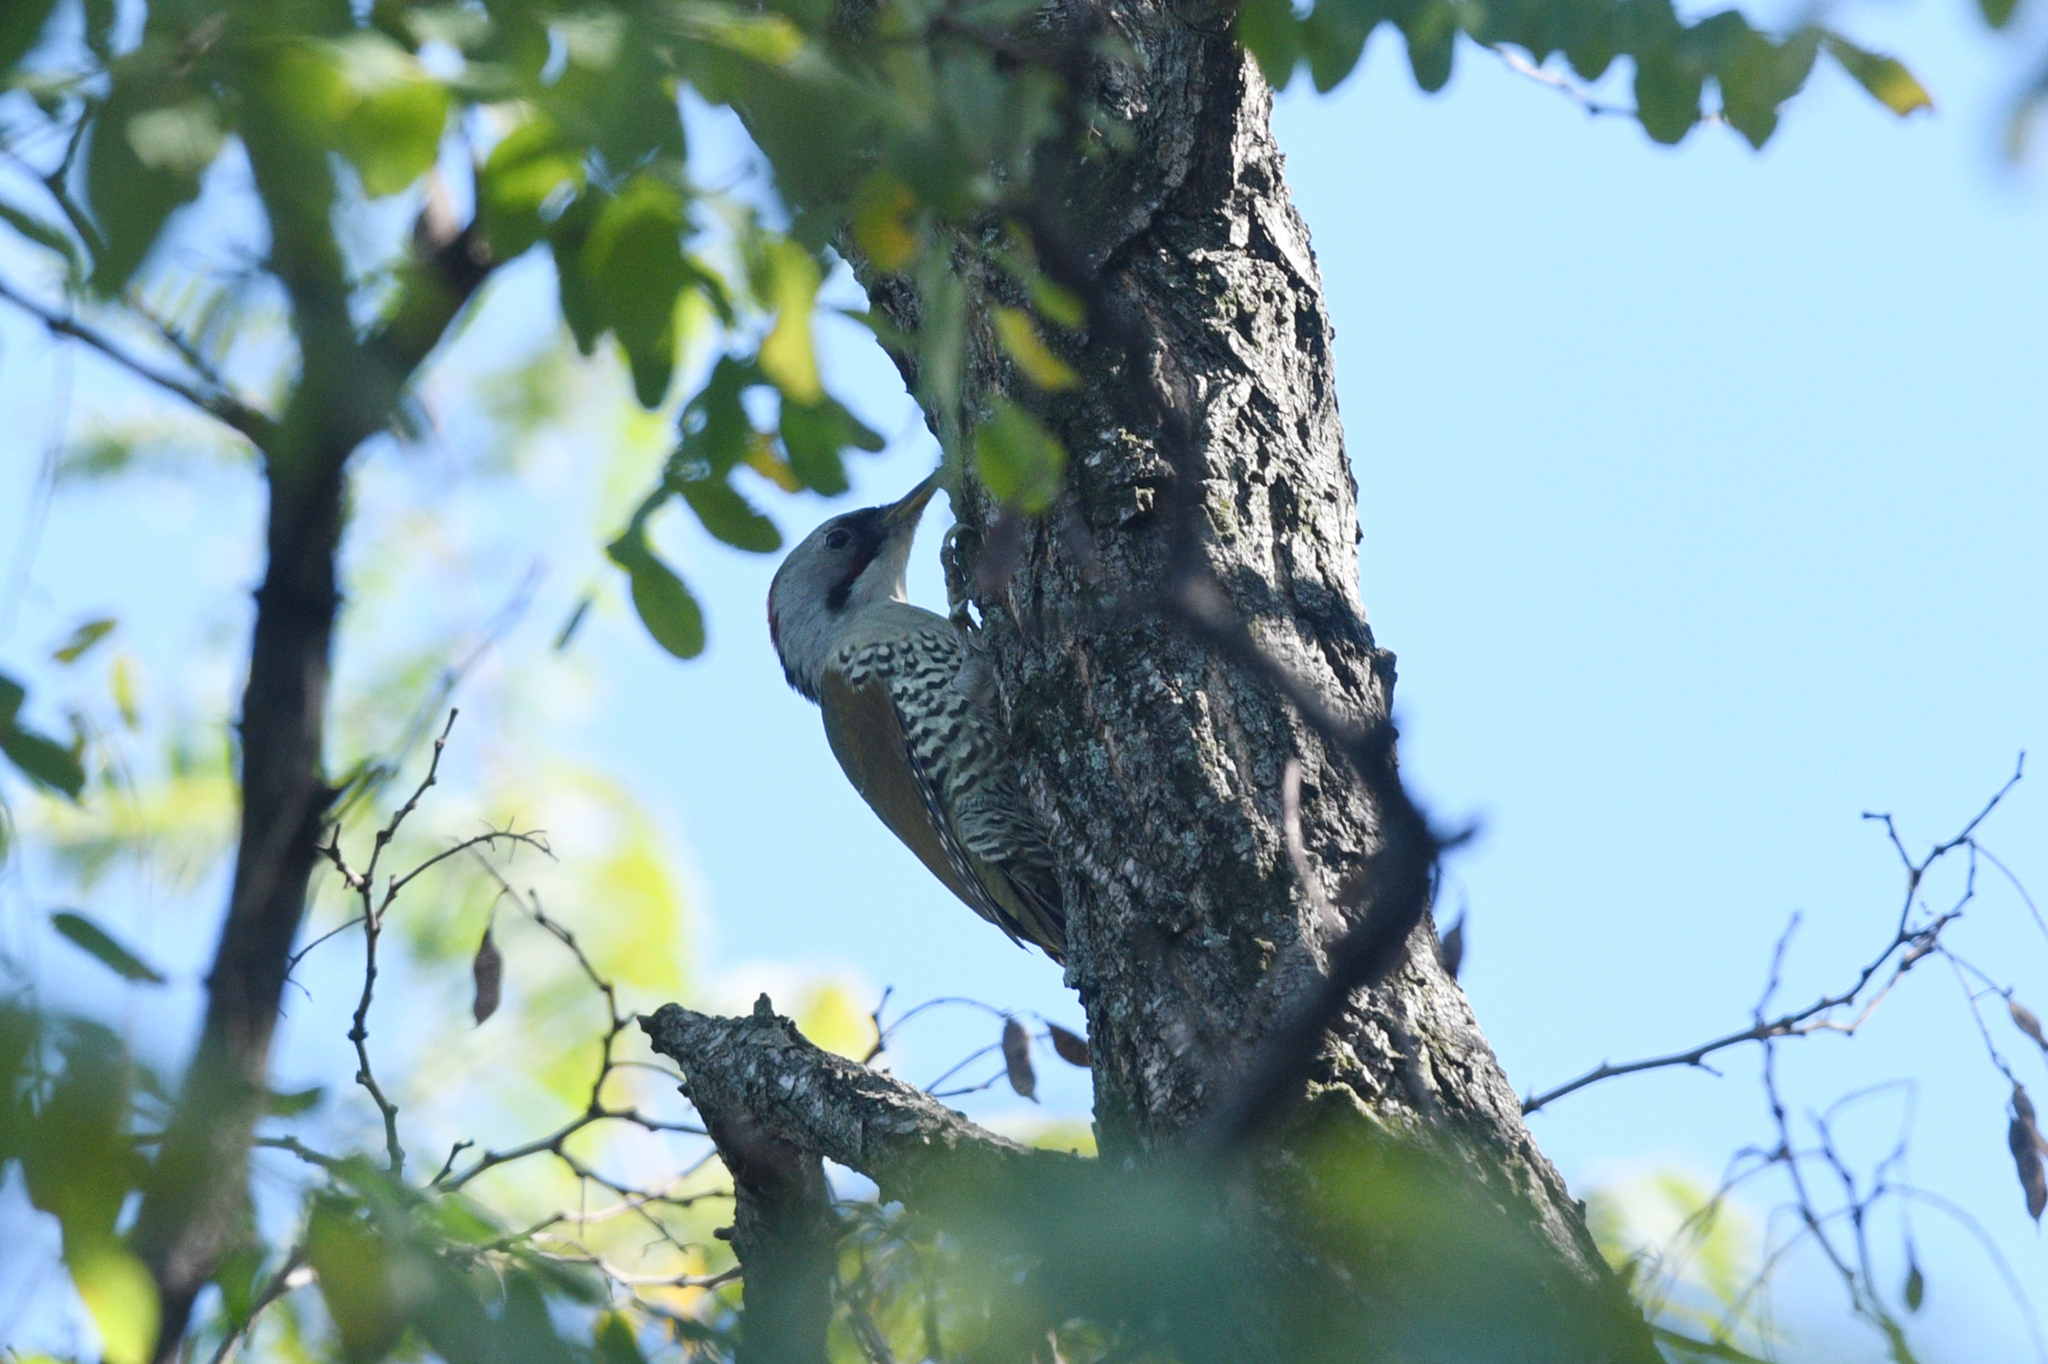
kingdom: Animalia
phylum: Chordata
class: Aves
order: Piciformes
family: Picidae
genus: Picus
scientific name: Picus awokera
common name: Japanese green woodpecker
